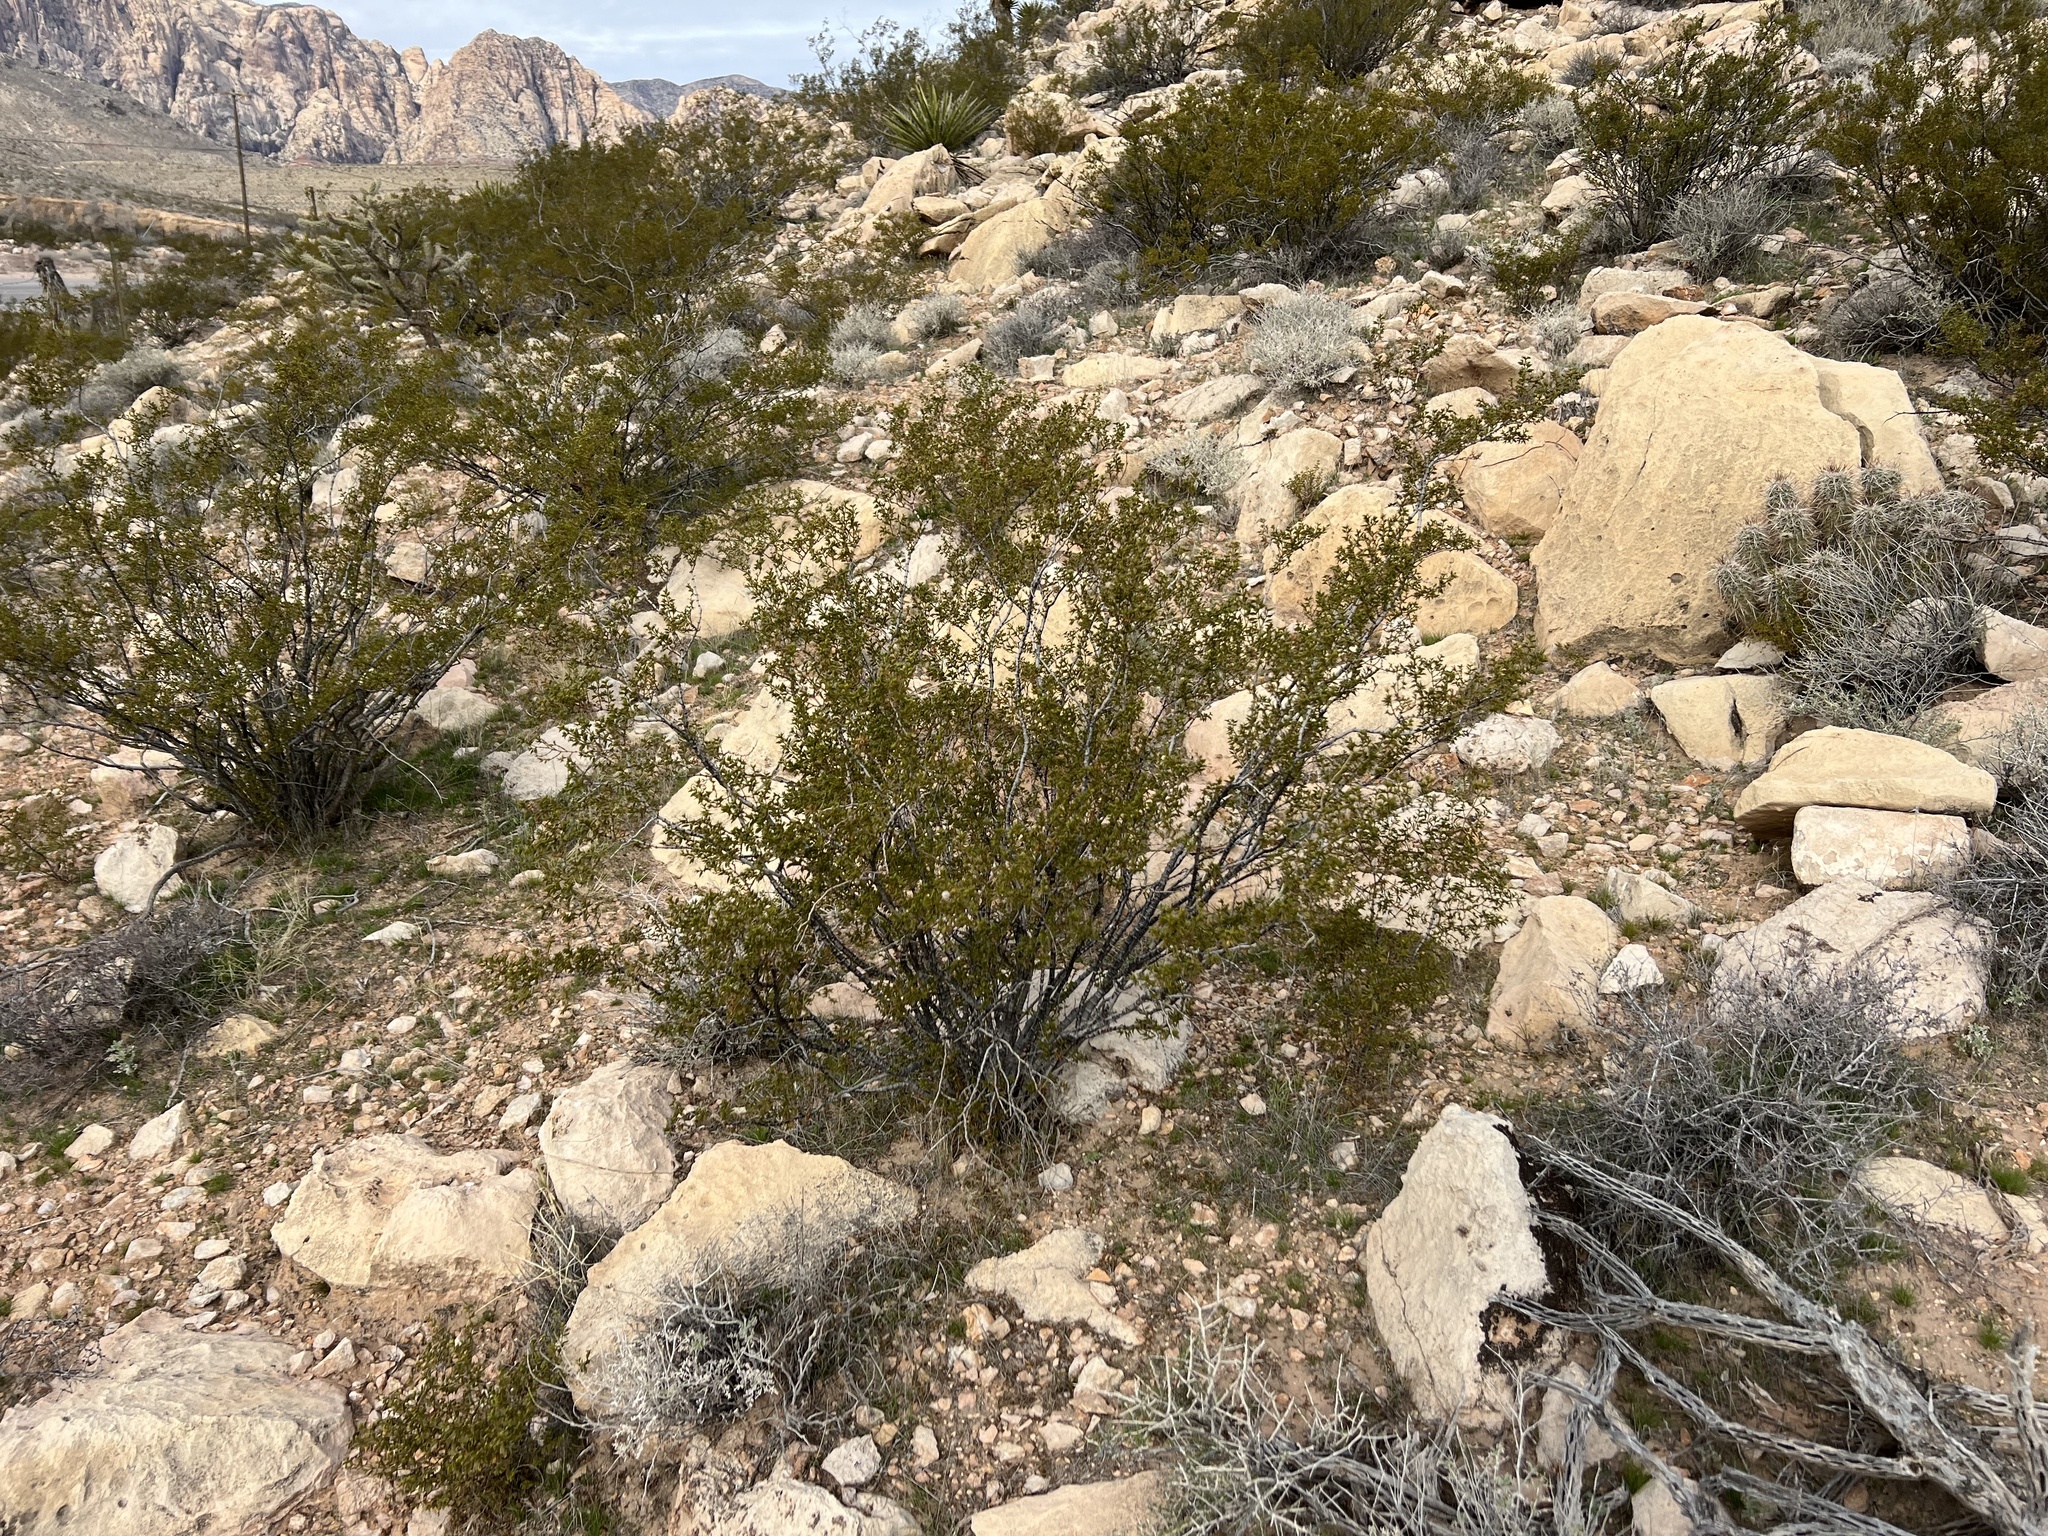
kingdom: Plantae
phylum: Tracheophyta
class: Magnoliopsida
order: Zygophyllales
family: Zygophyllaceae
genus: Larrea
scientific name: Larrea tridentata
